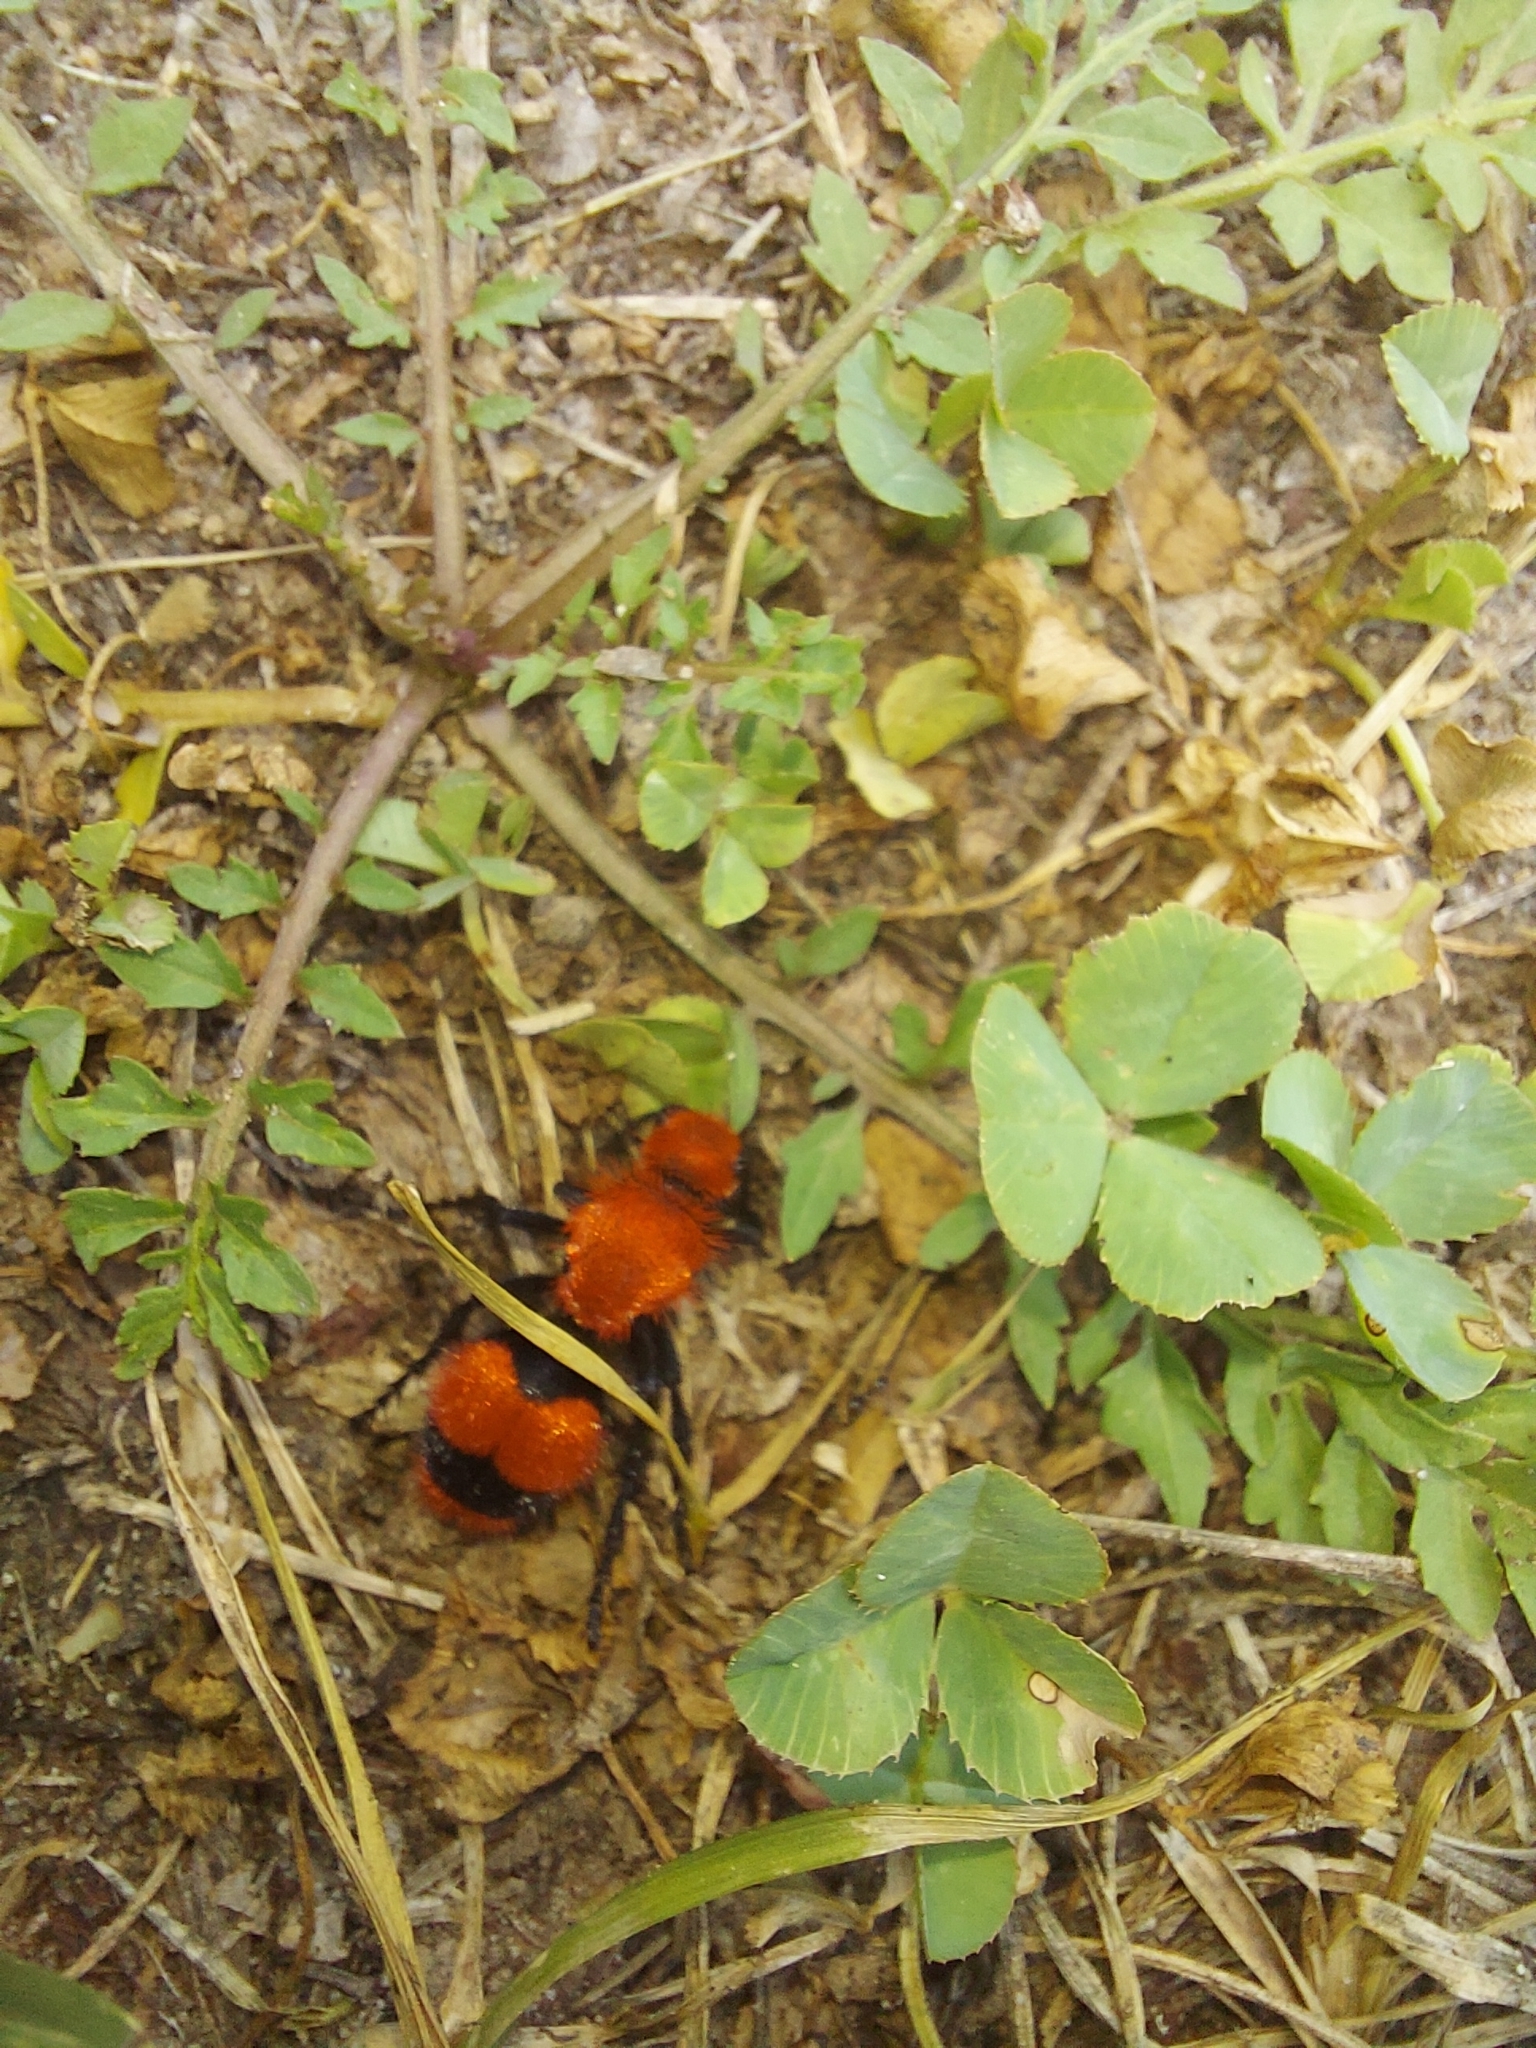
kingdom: Animalia
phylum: Arthropoda
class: Insecta
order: Hymenoptera
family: Mutillidae
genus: Dasymutilla
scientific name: Dasymutilla occidentalis
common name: Common eastern velvet ant
